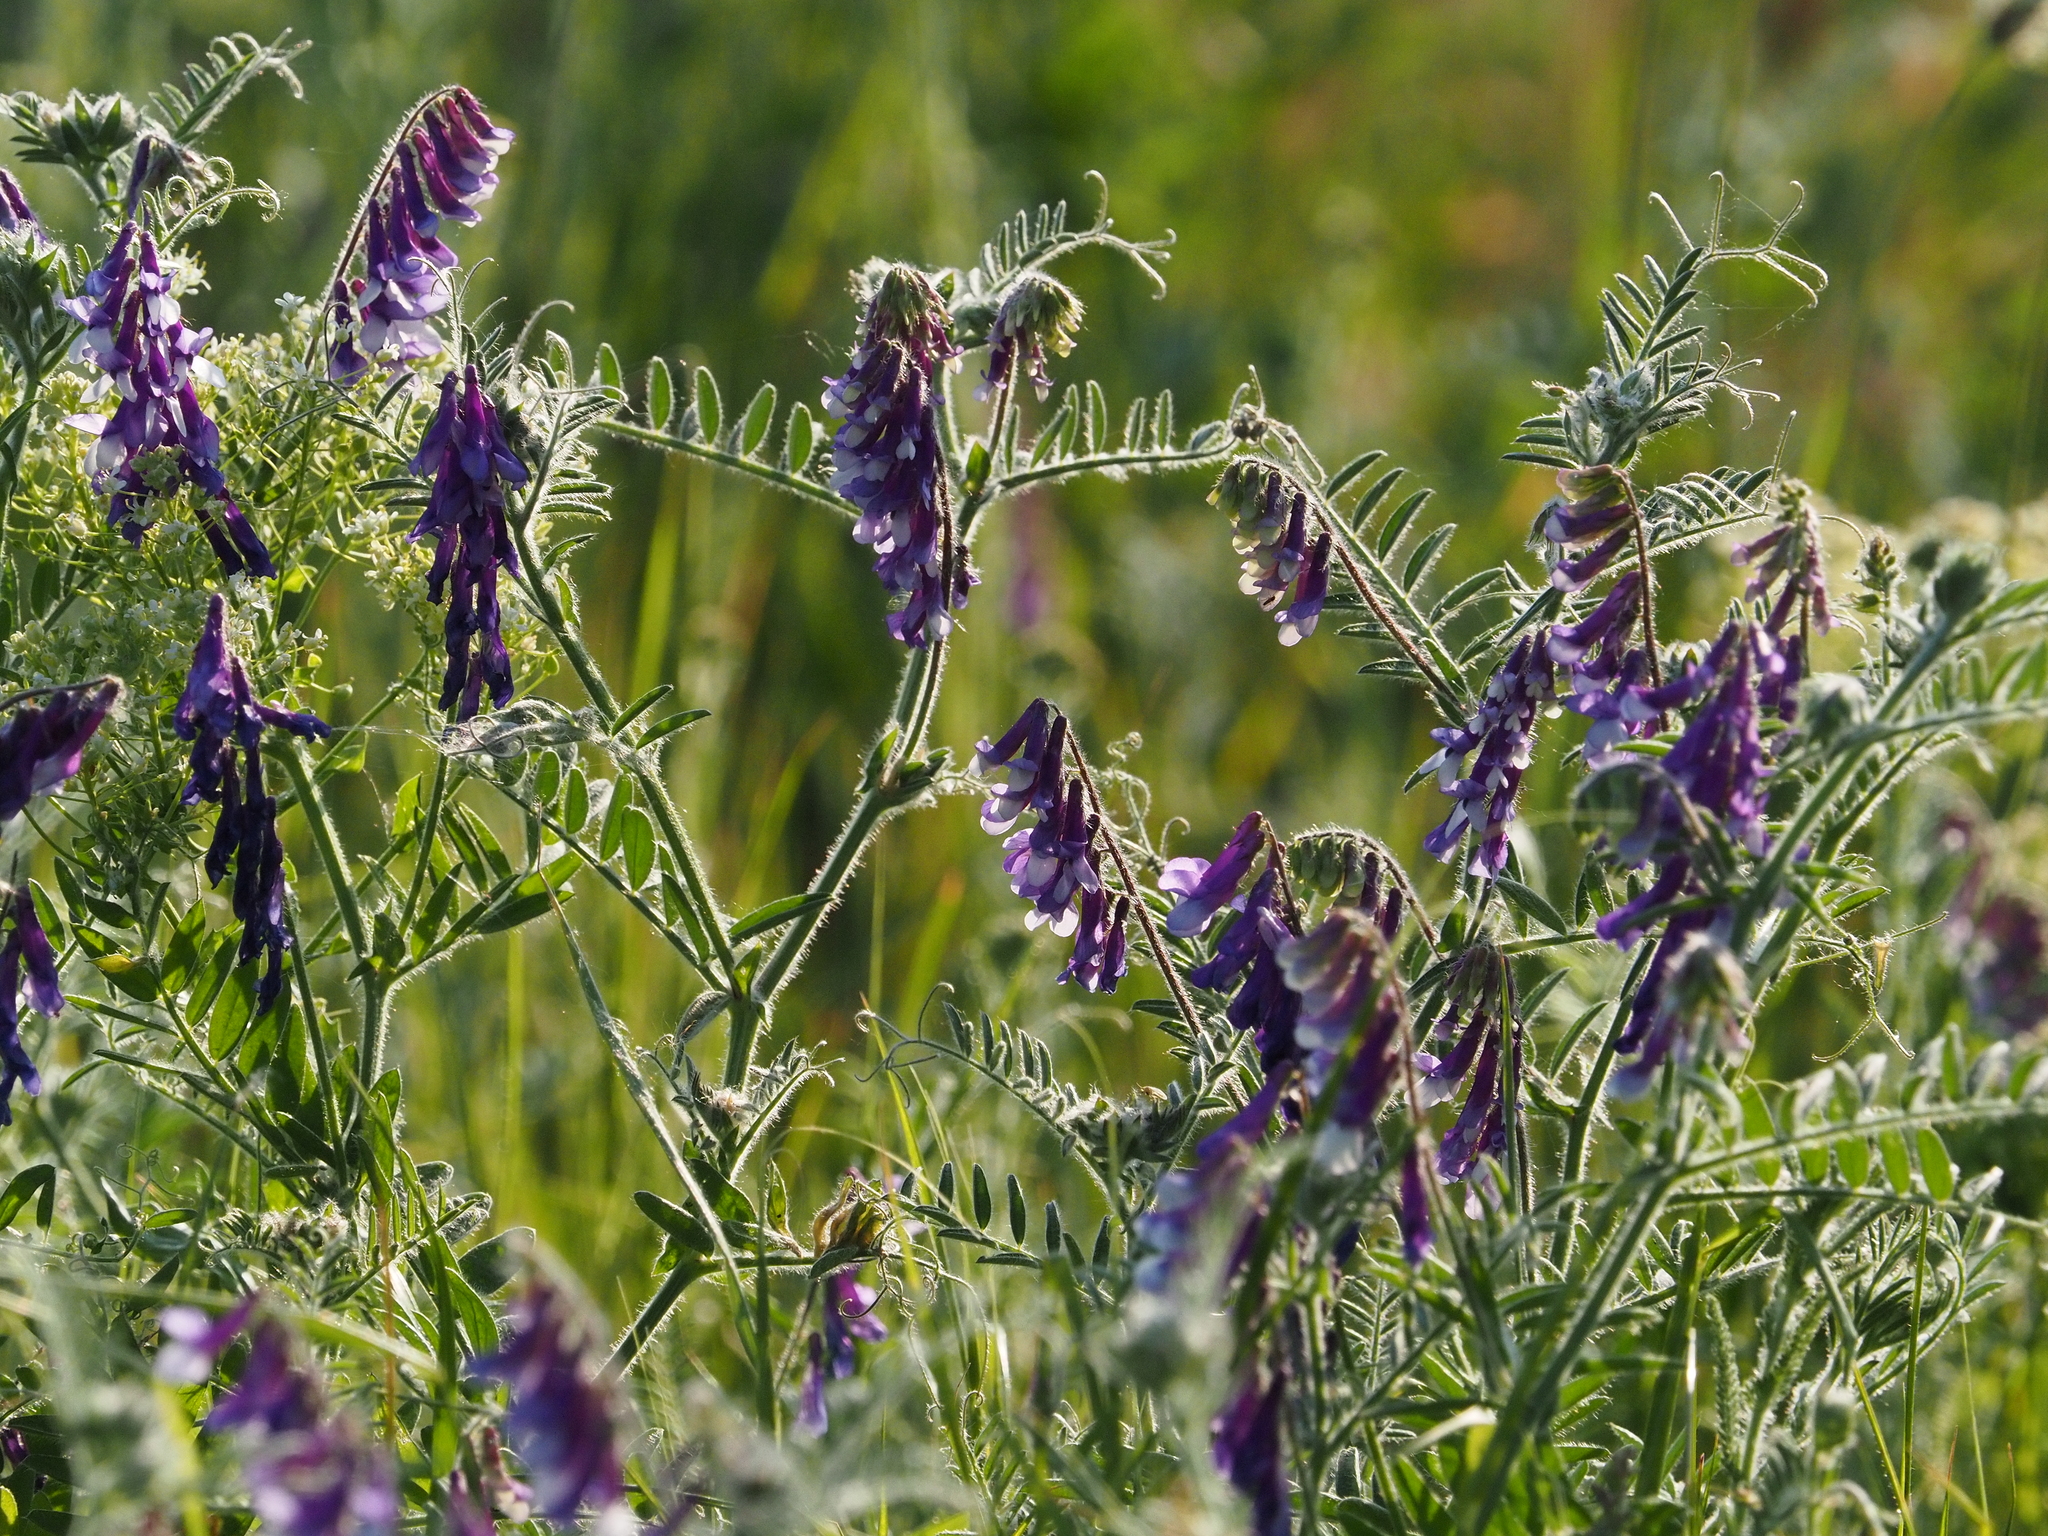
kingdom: Plantae
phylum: Tracheophyta
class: Magnoliopsida
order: Fabales
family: Fabaceae
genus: Vicia
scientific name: Vicia villosa
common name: Fodder vetch
